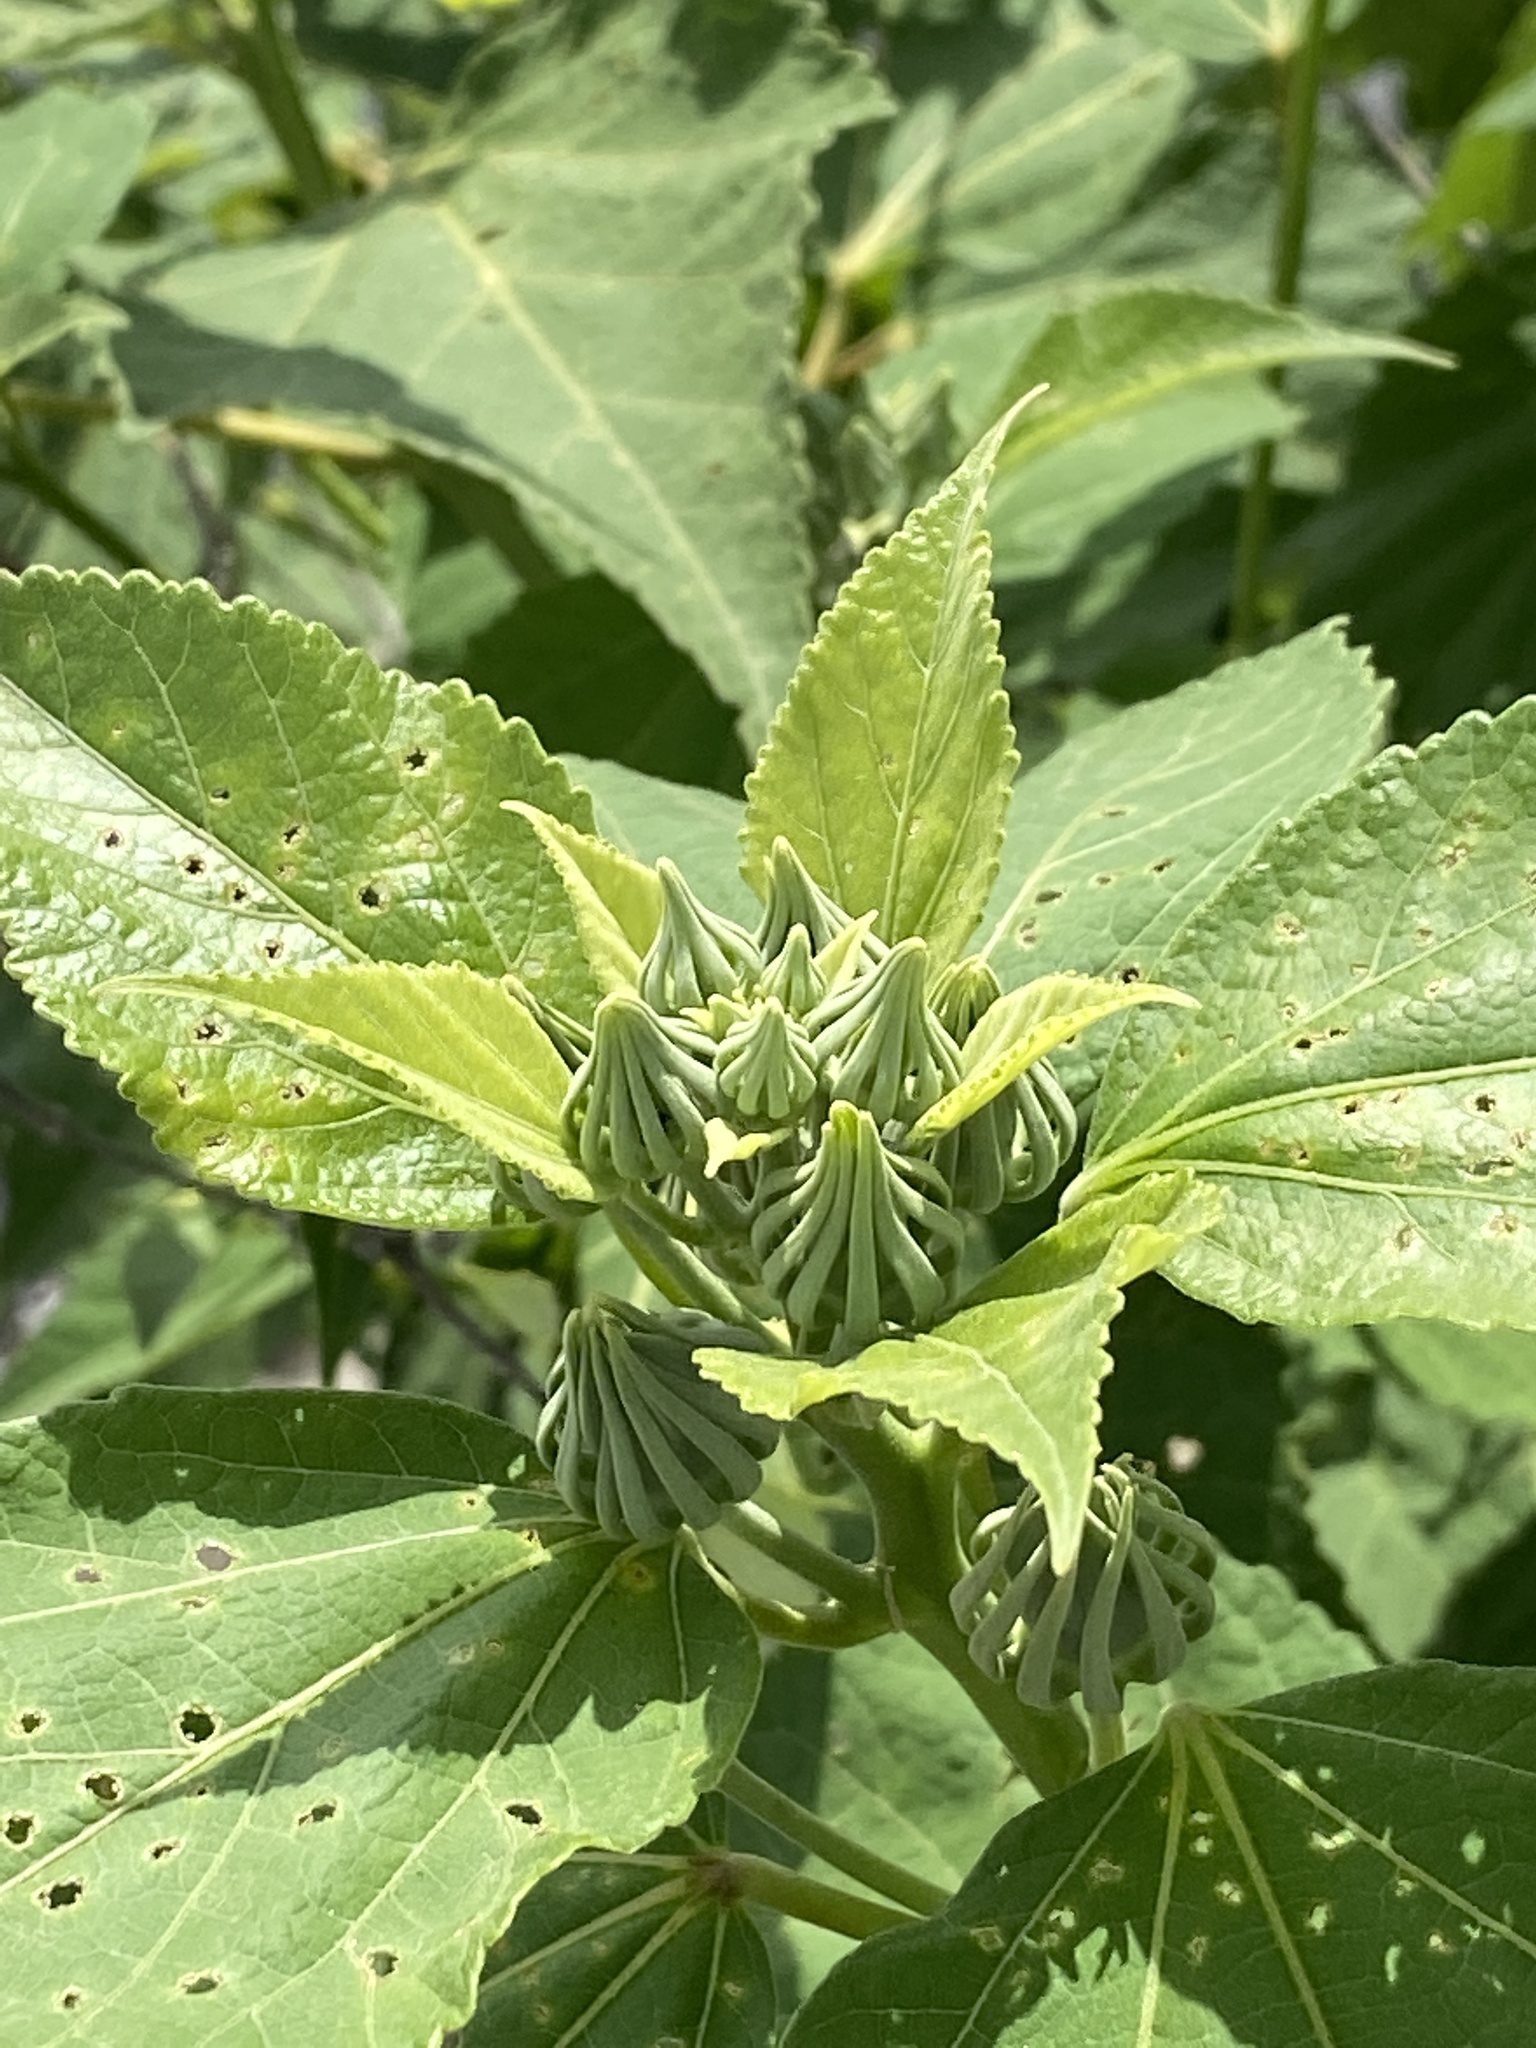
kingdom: Plantae
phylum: Tracheophyta
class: Magnoliopsida
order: Malvales
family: Malvaceae
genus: Hibiscus
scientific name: Hibiscus moscheutos
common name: Common rose-mallow
